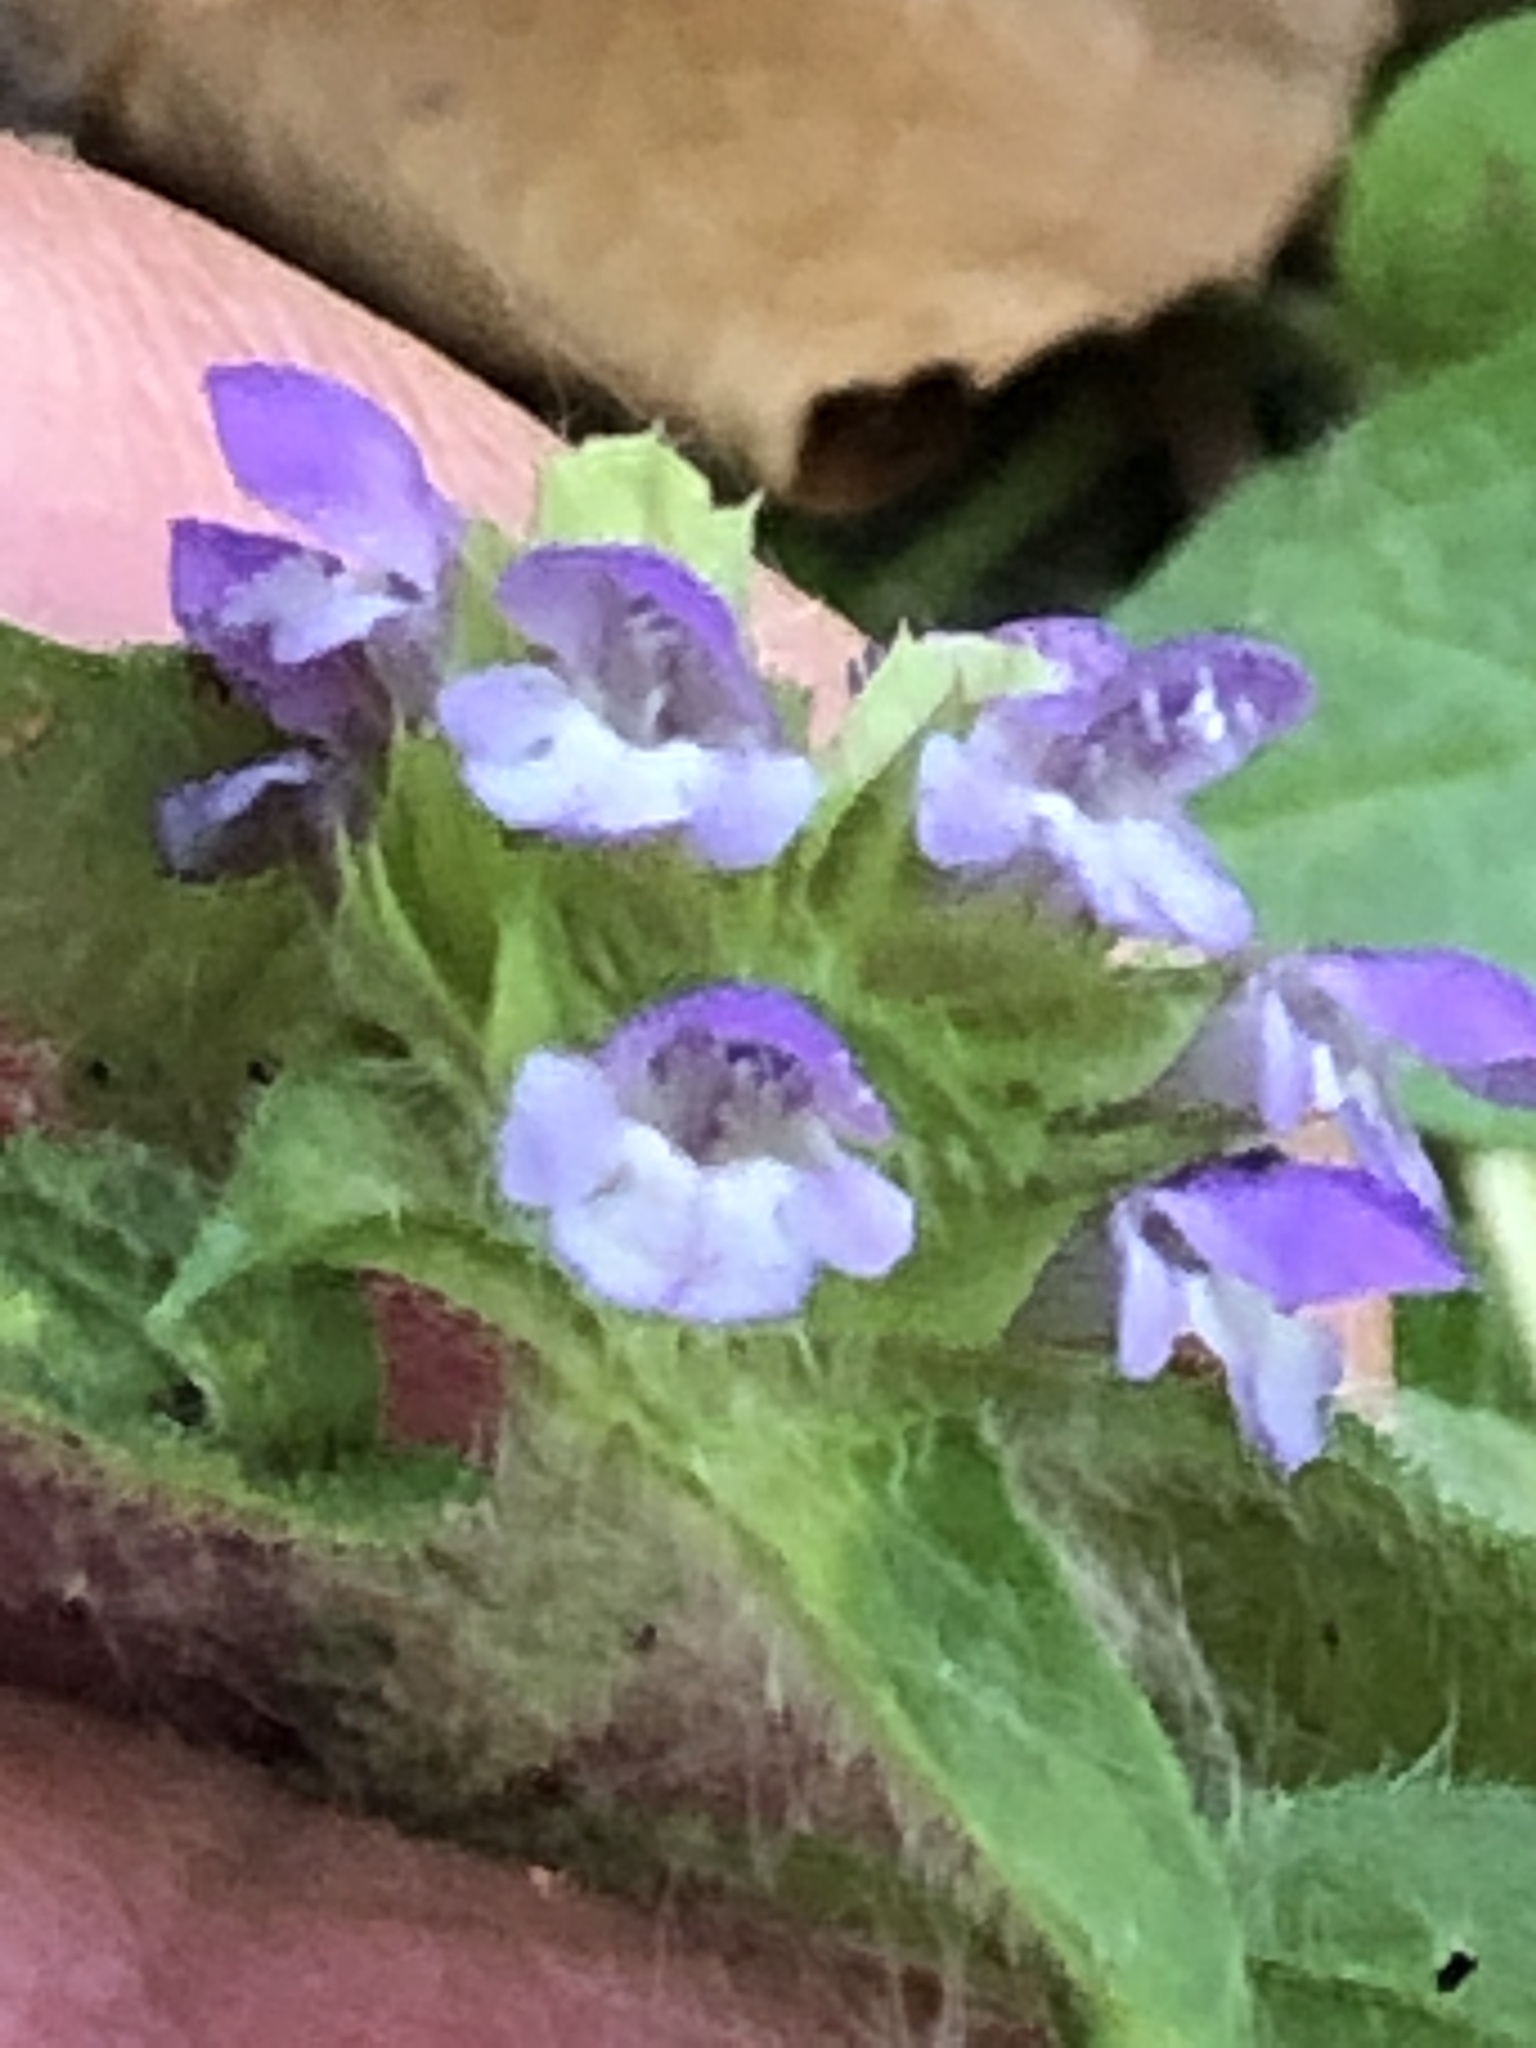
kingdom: Plantae
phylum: Tracheophyta
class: Magnoliopsida
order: Lamiales
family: Lamiaceae
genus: Prunella
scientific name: Prunella vulgaris
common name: Heal-all
